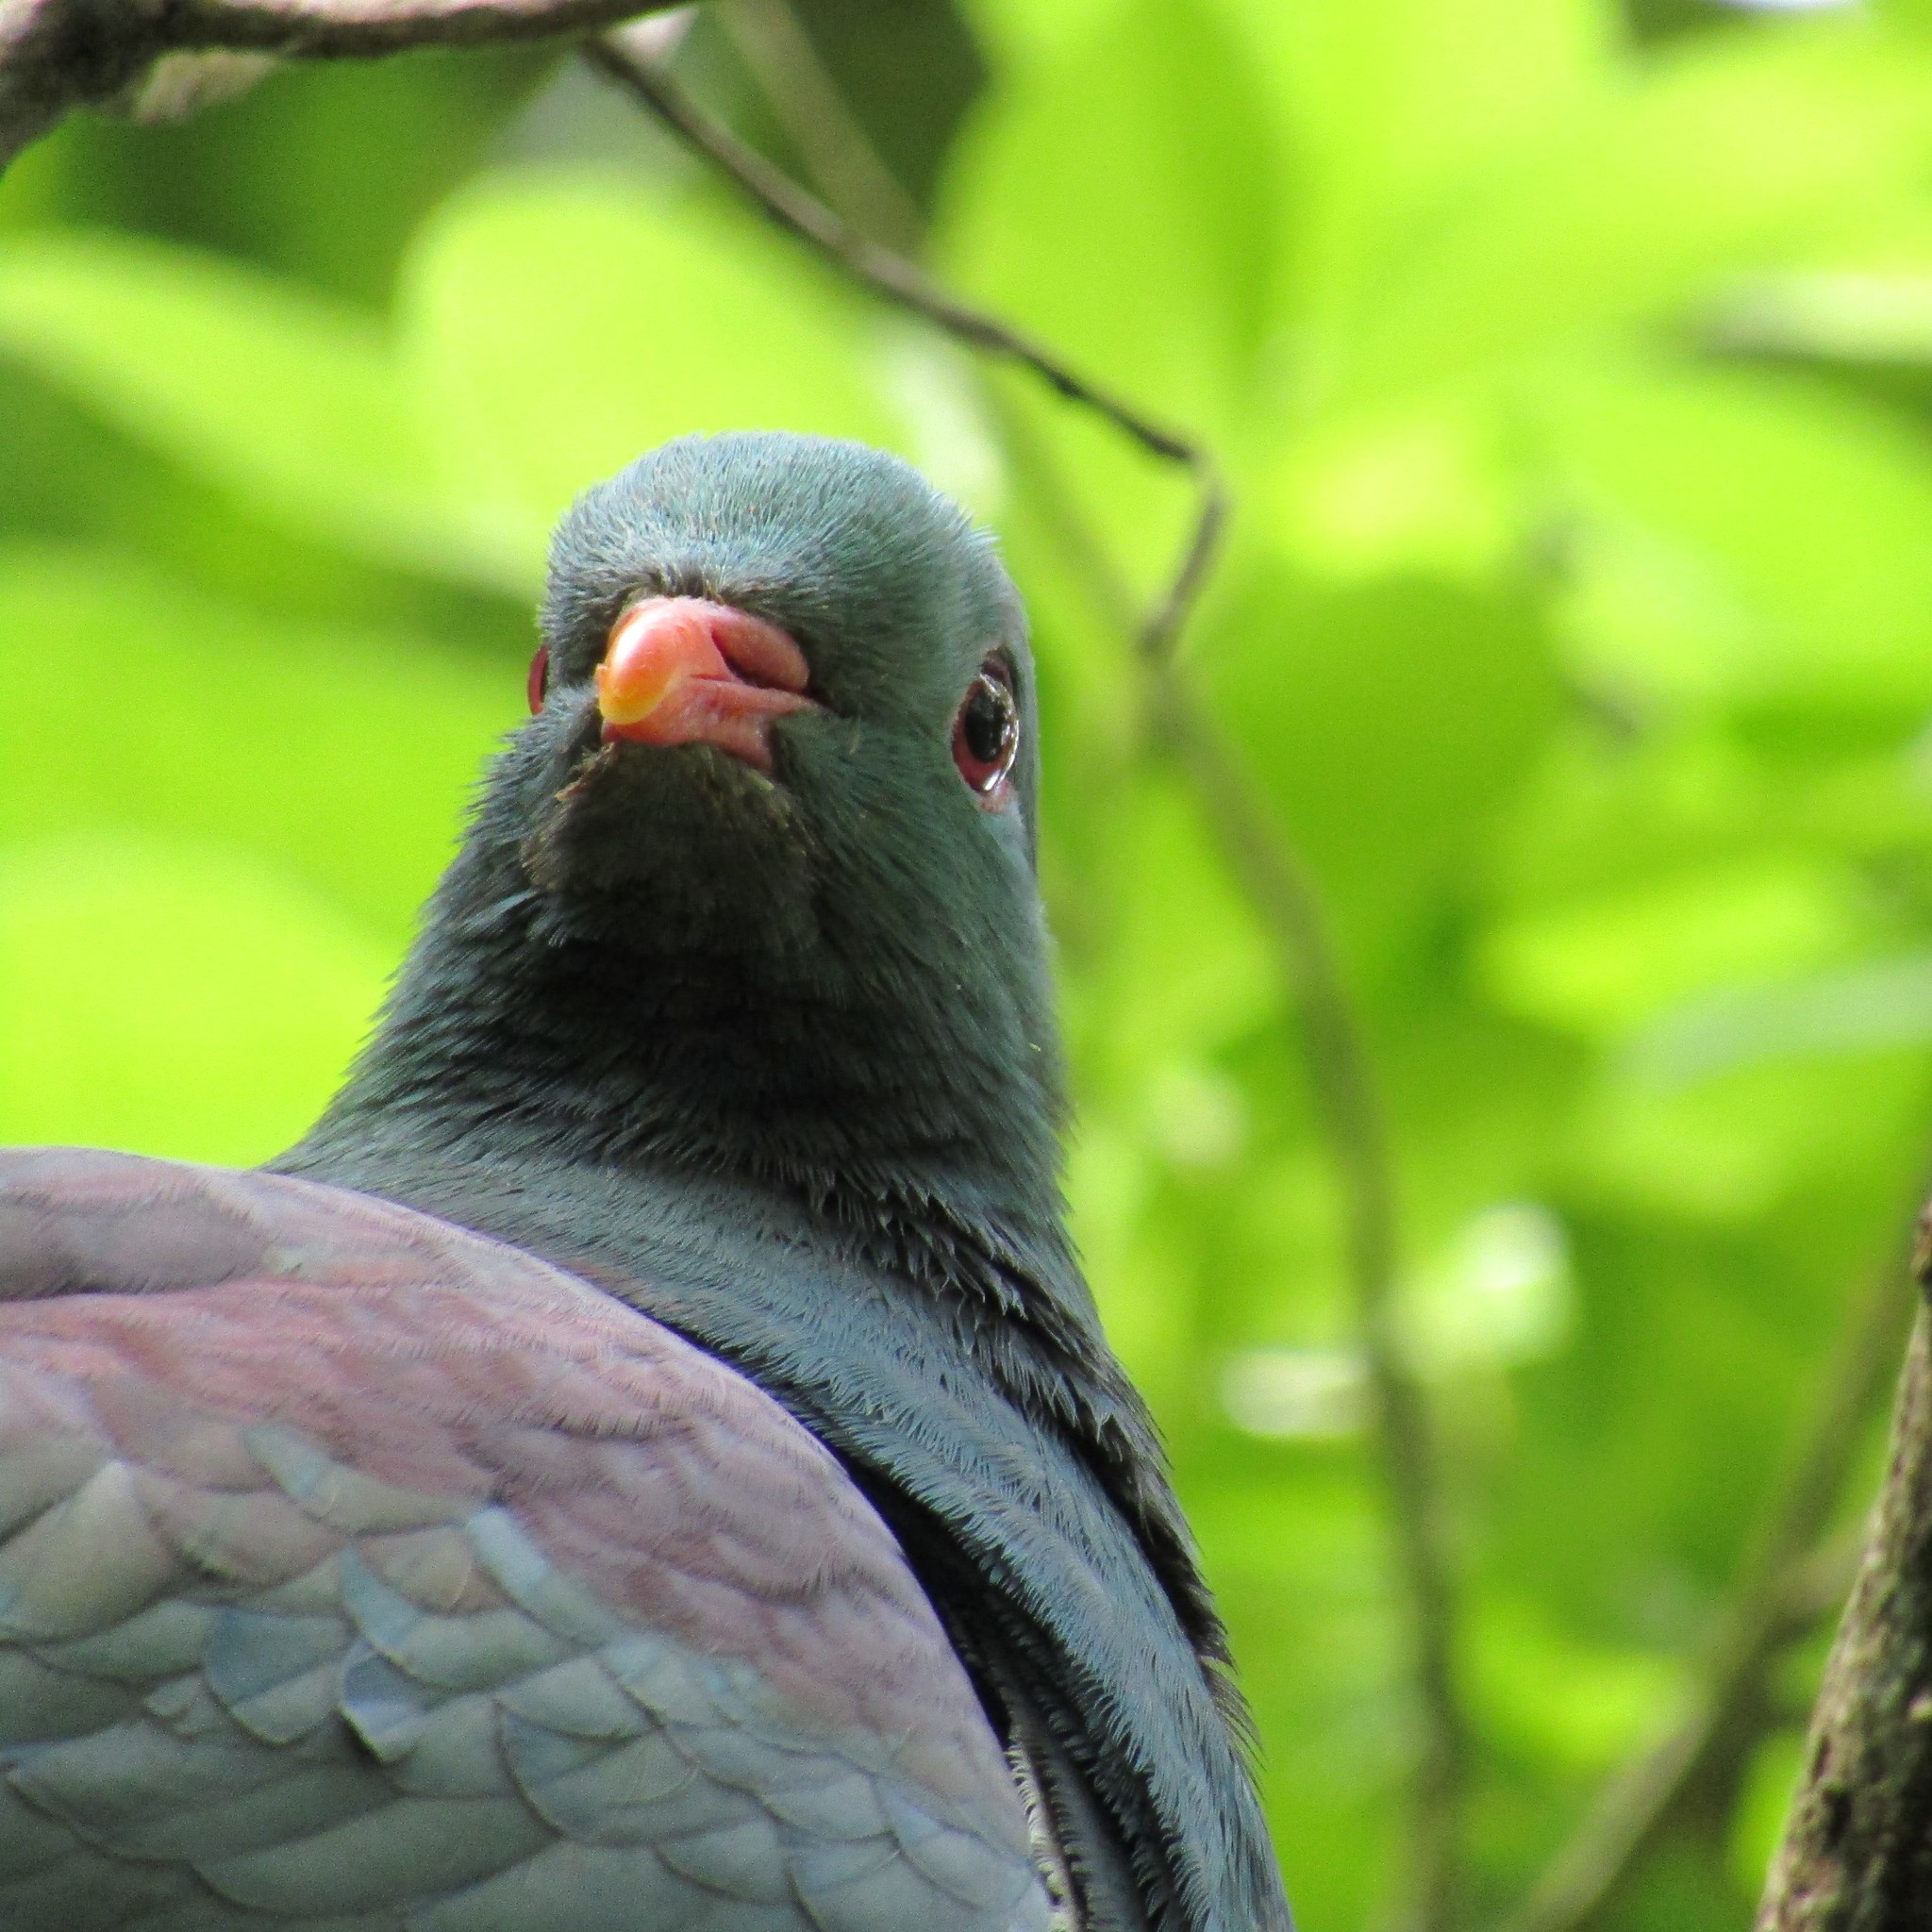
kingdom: Animalia
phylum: Chordata
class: Aves
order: Columbiformes
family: Columbidae
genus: Hemiphaga
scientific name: Hemiphaga novaeseelandiae
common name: New zealand pigeon
